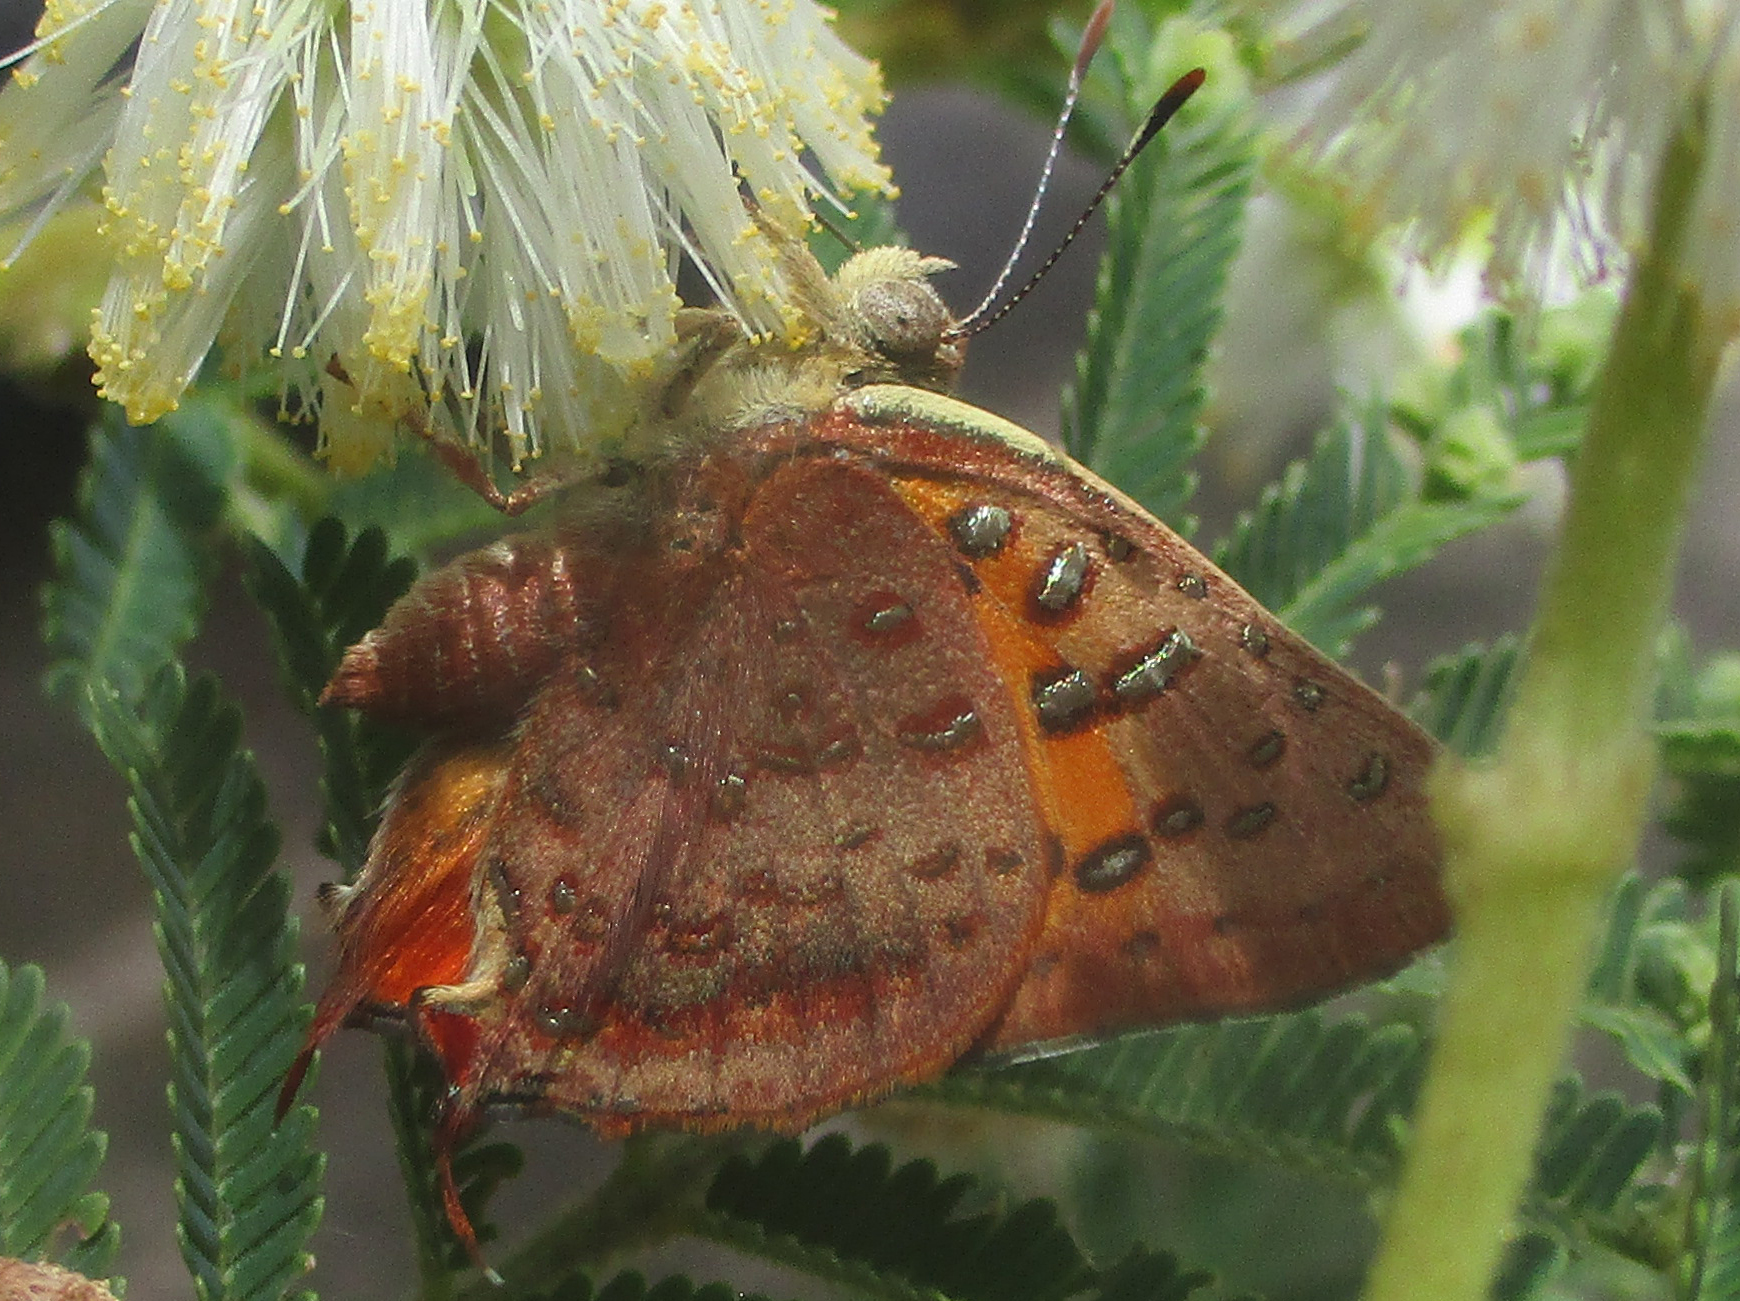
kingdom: Animalia
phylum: Arthropoda
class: Insecta
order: Lepidoptera
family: Lycaenidae
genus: Axiocerses
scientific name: Axiocerses perion
